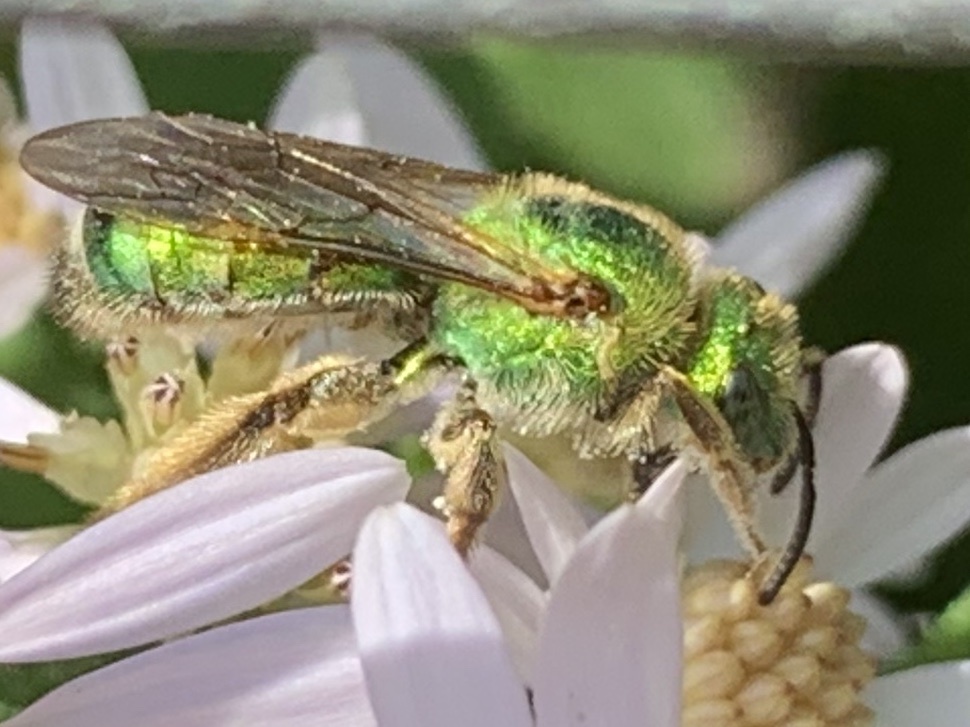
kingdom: Animalia
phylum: Arthropoda
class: Insecta
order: Hymenoptera
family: Halictidae
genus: Agapostemon
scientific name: Agapostemon sericeus
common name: Silky striped sweat bee
